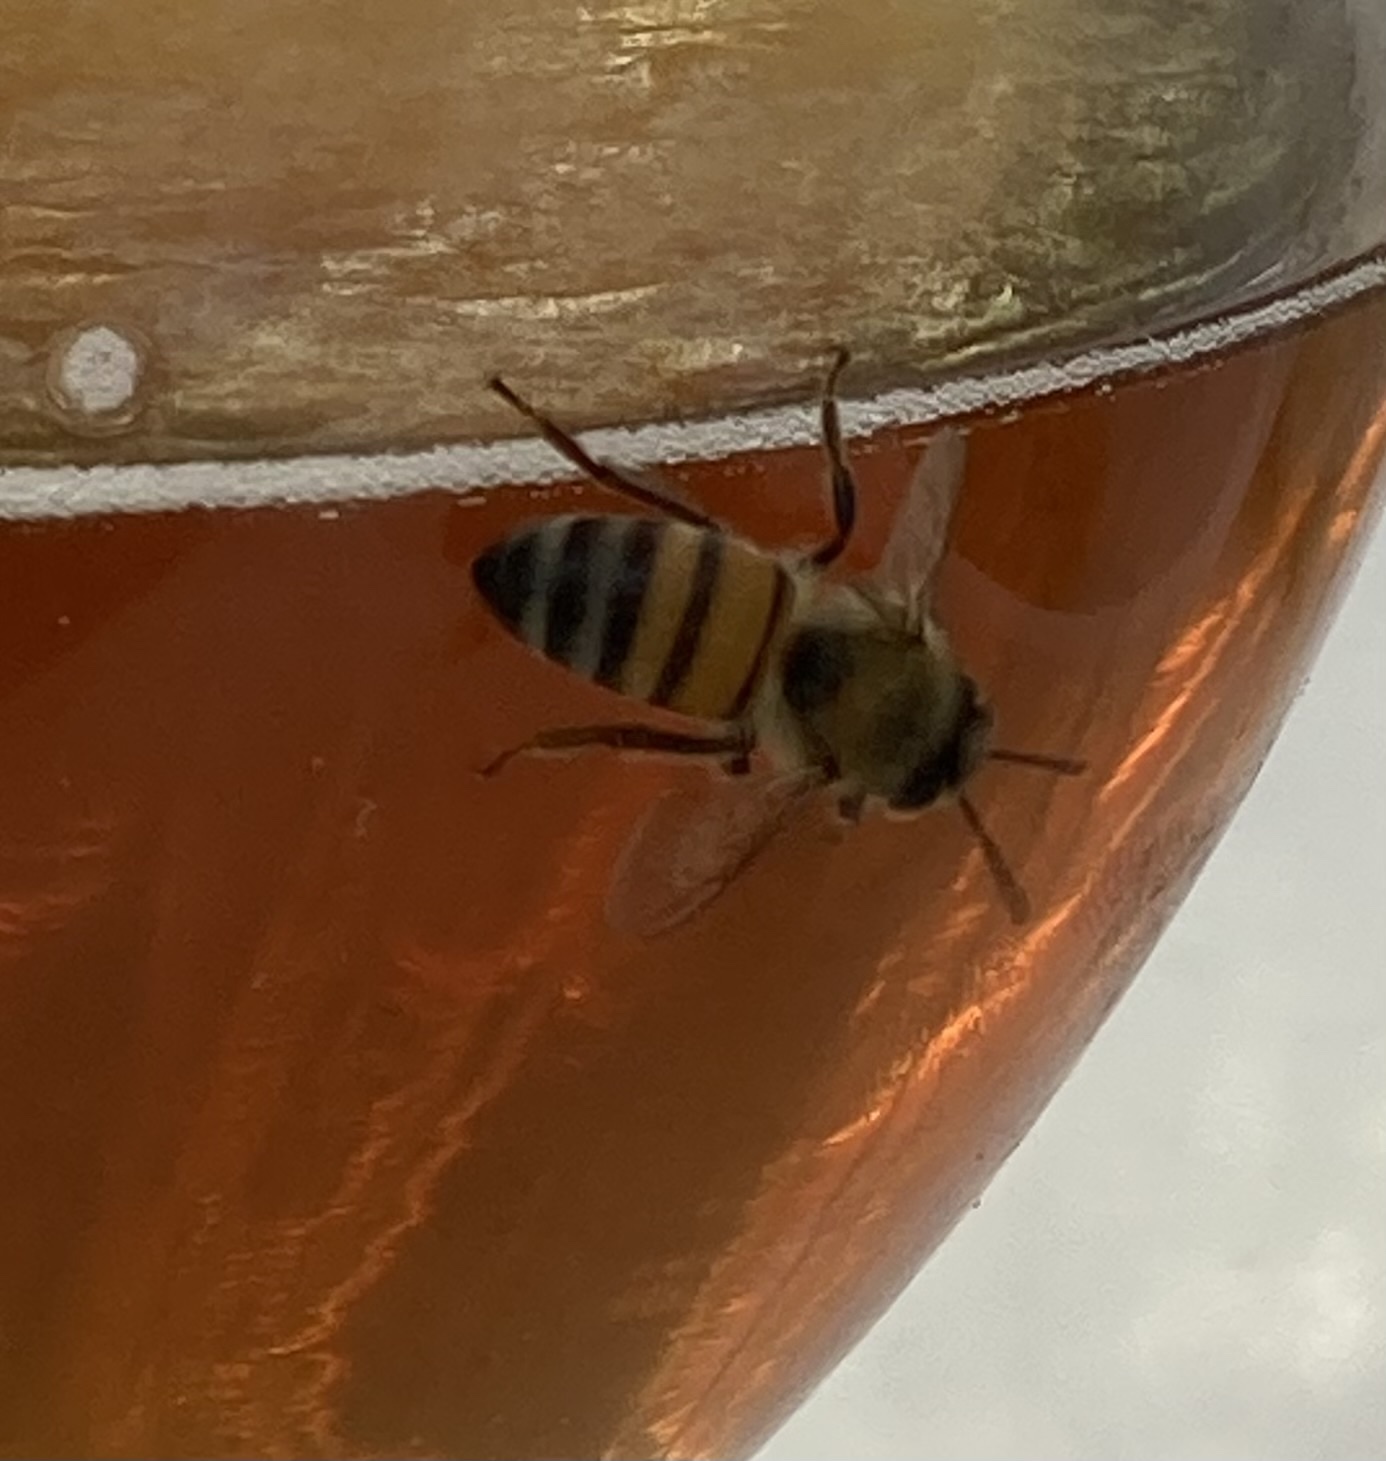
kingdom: Animalia
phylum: Arthropoda
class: Insecta
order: Hymenoptera
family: Apidae
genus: Apis
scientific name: Apis mellifera
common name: Honey bee
